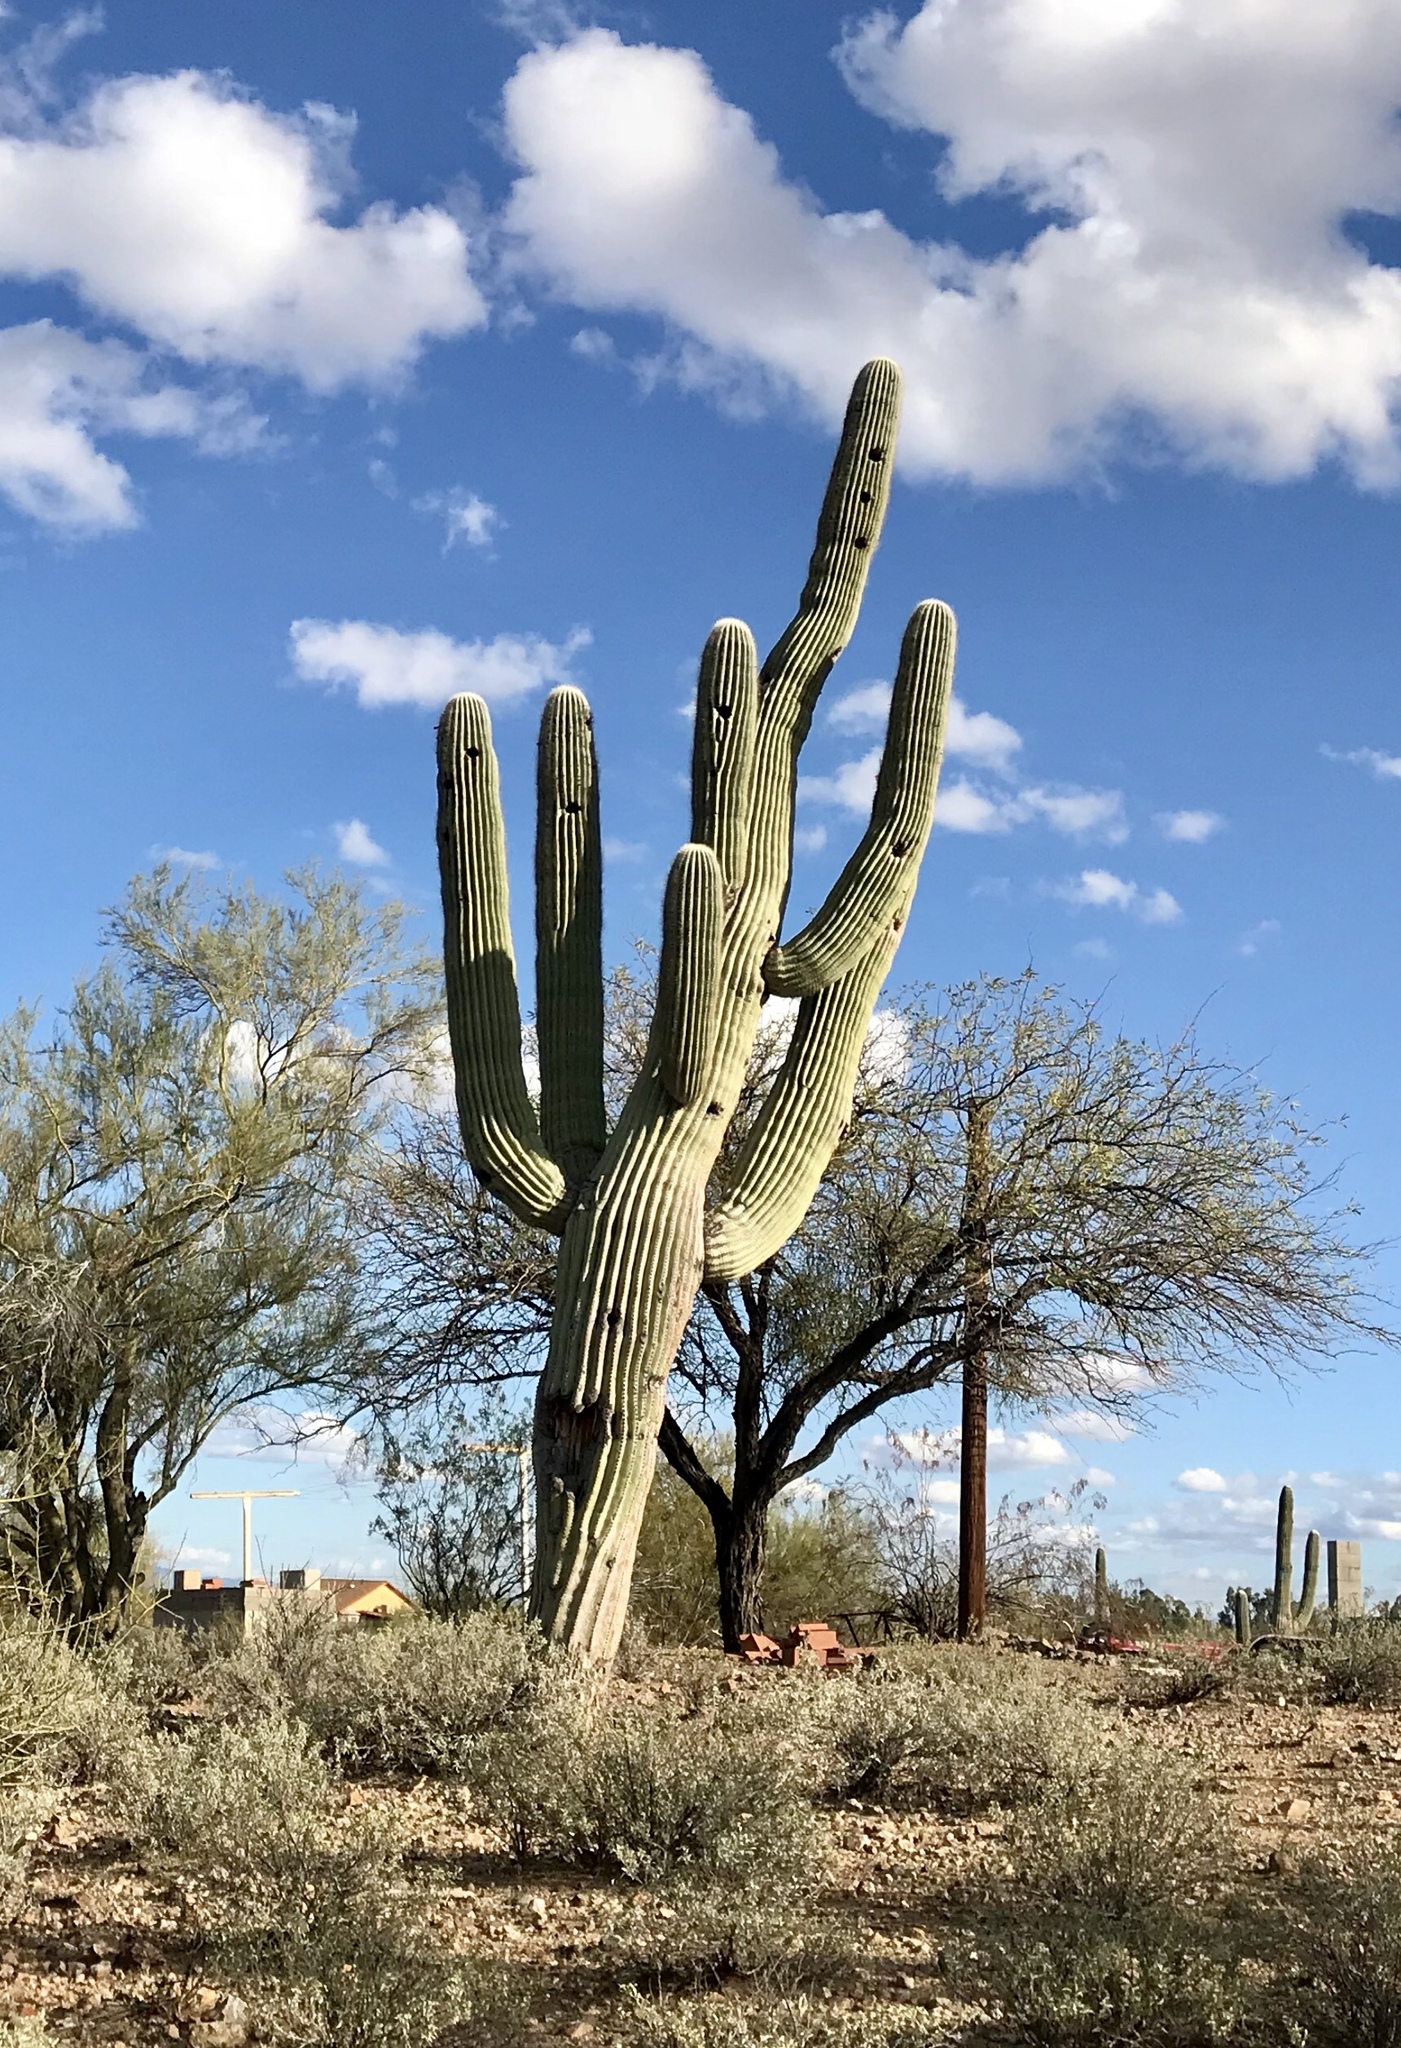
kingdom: Plantae
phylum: Tracheophyta
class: Magnoliopsida
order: Caryophyllales
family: Cactaceae
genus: Carnegiea
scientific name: Carnegiea gigantea
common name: Saguaro
